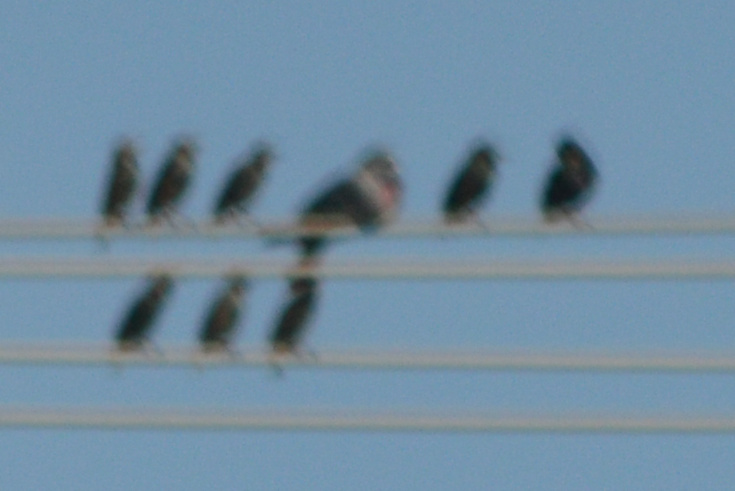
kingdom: Animalia
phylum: Chordata
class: Aves
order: Columbiformes
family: Columbidae
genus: Columba
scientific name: Columba livia
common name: Rock pigeon
